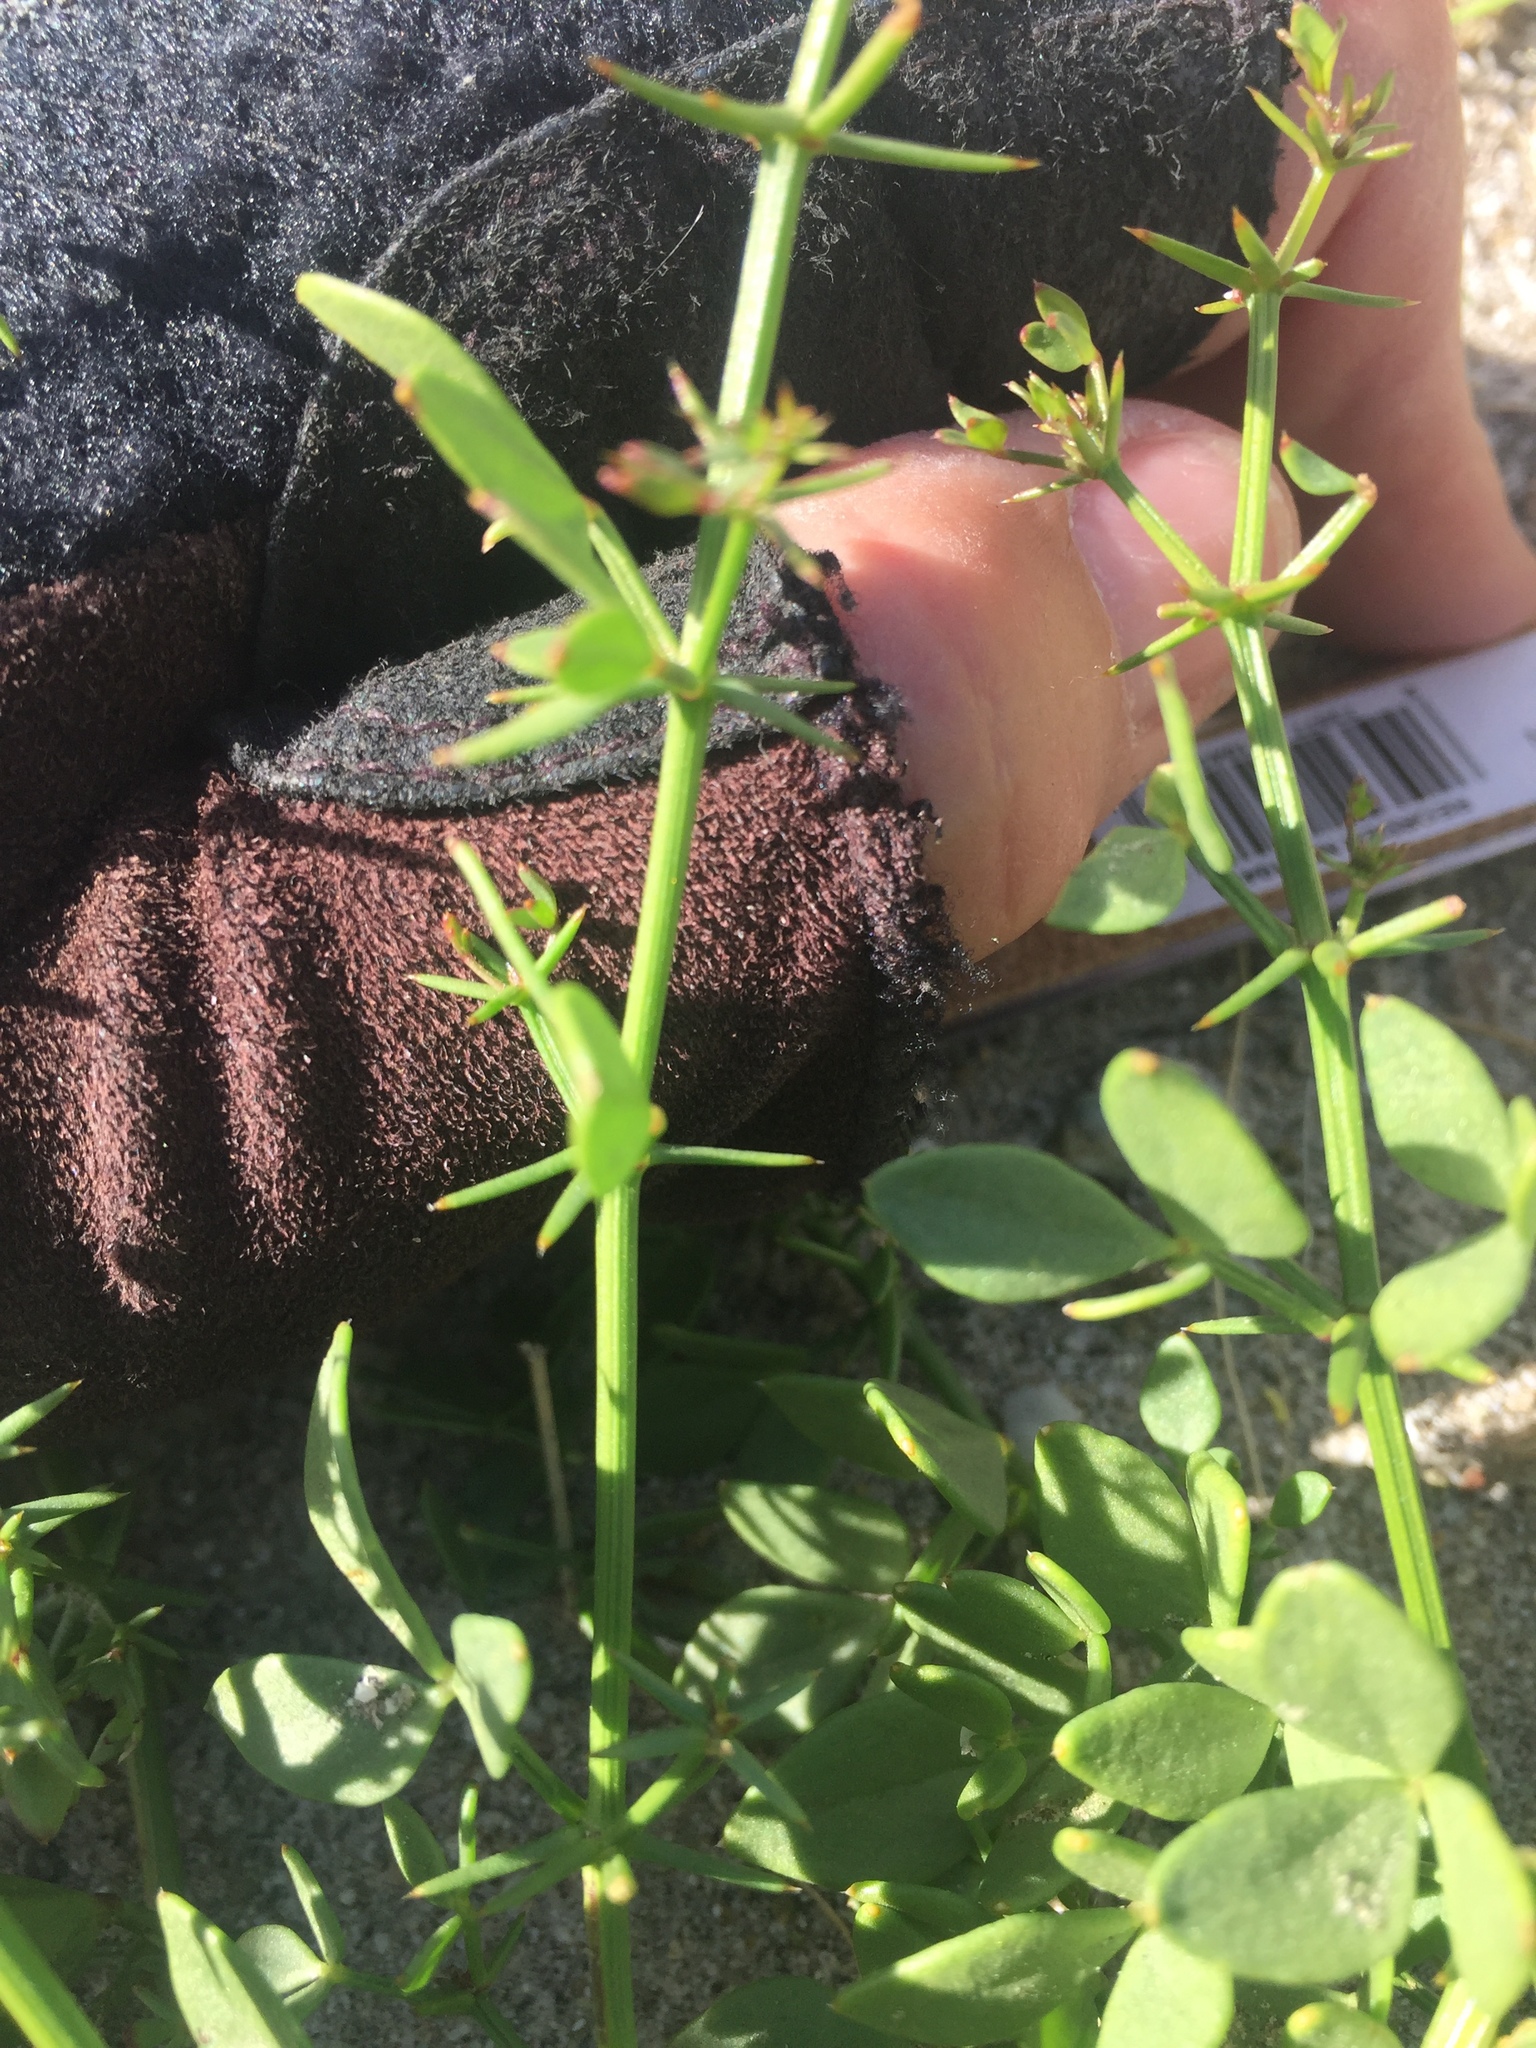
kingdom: Plantae
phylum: Tracheophyta
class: Magnoliopsida
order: Zygophyllales
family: Zygophyllaceae
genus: Fagonia
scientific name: Fagonia pachyacantha
